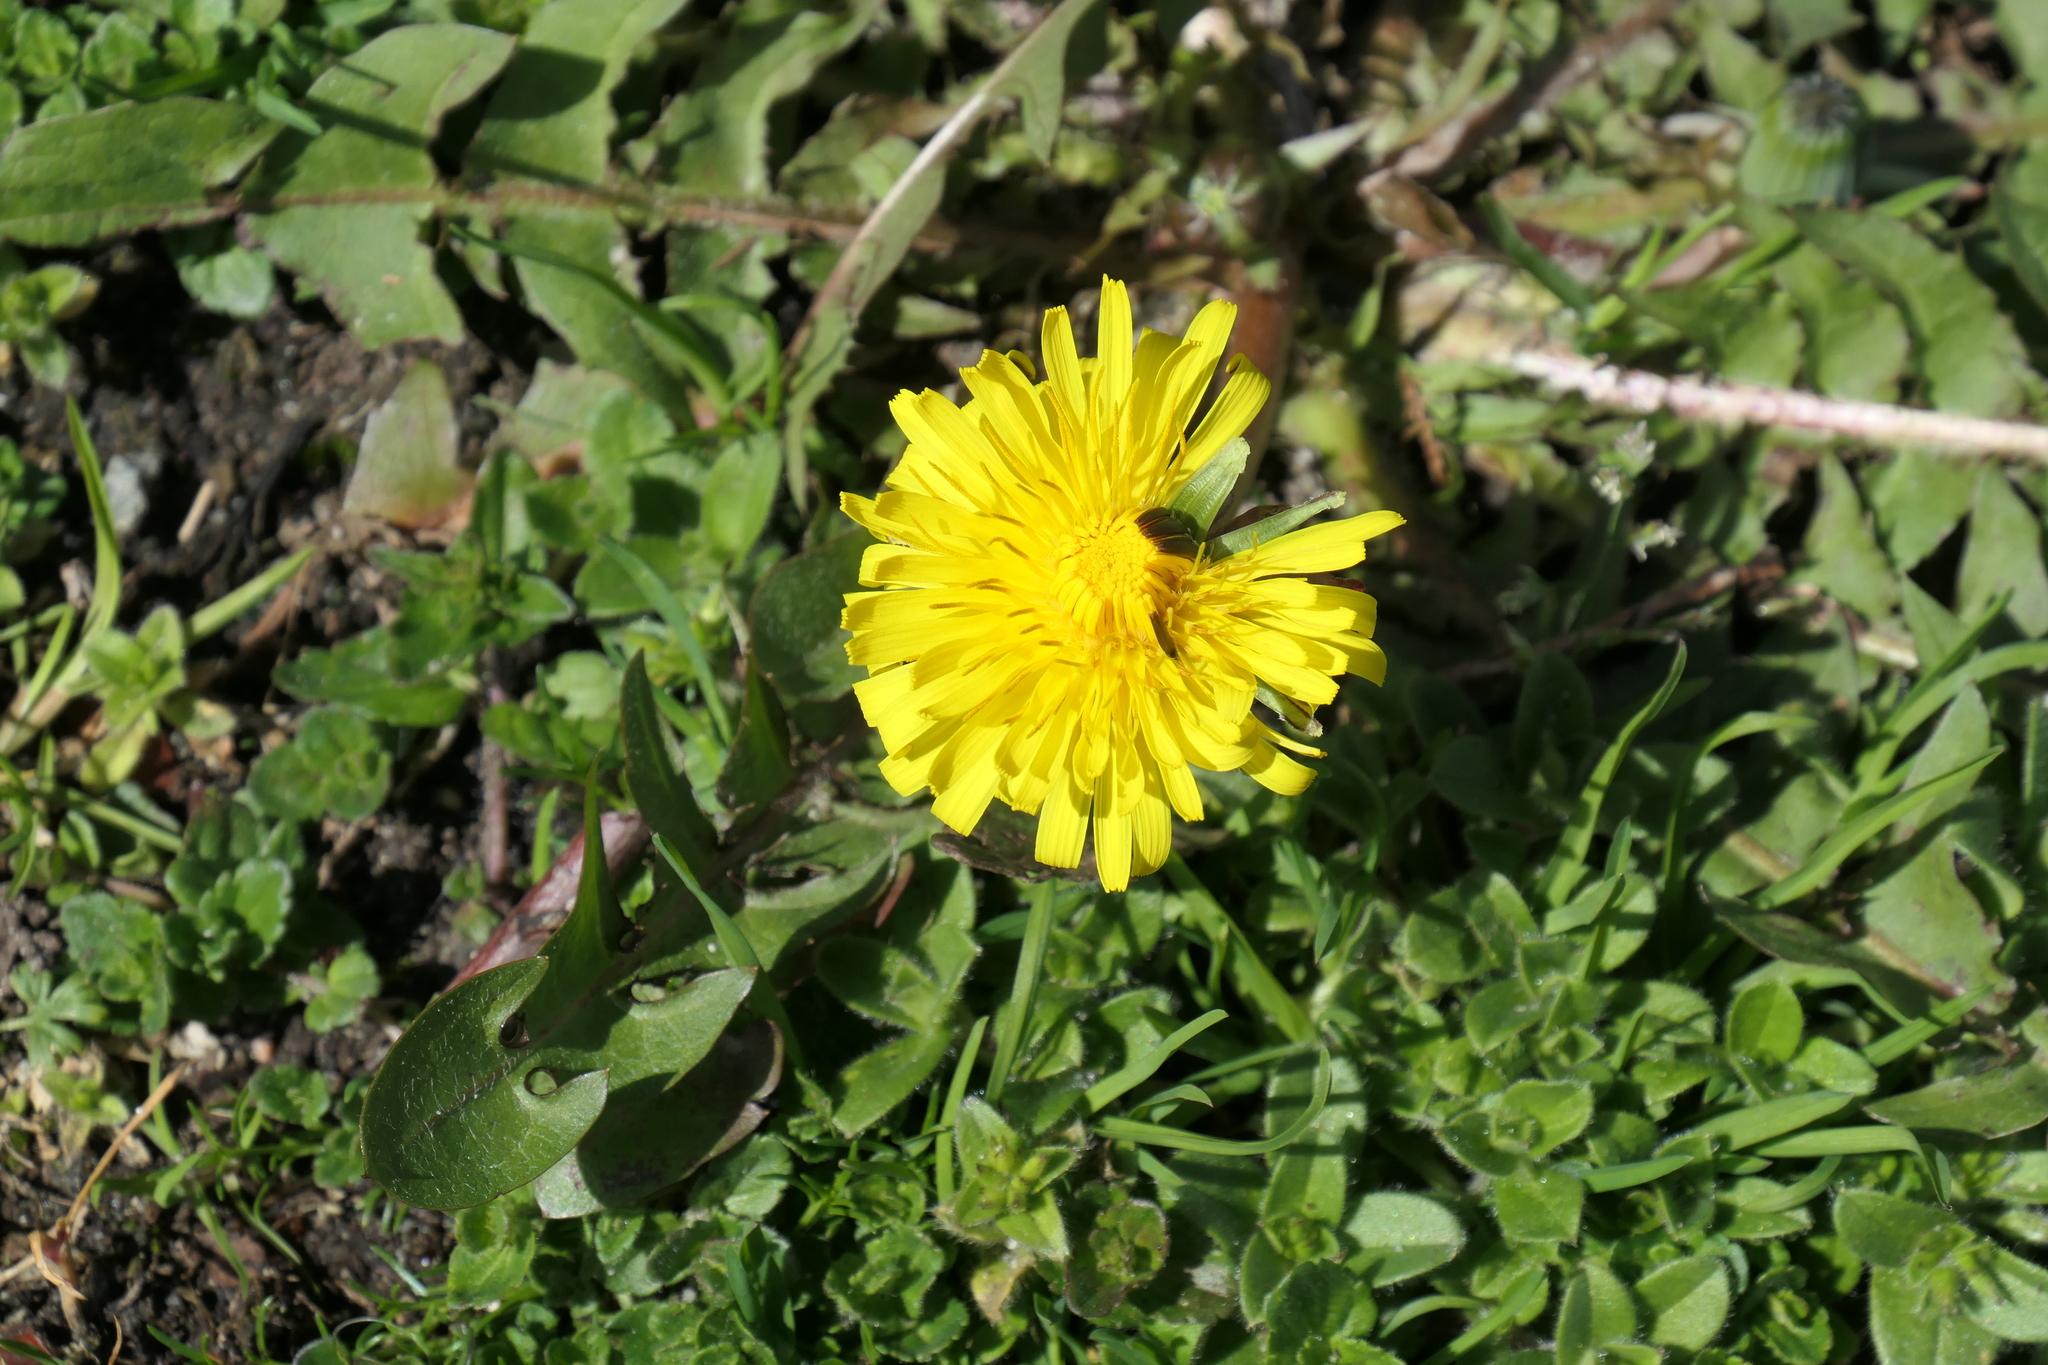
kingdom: Plantae
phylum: Tracheophyta
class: Magnoliopsida
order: Asterales
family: Asteraceae
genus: Taraxacum
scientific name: Taraxacum officinale
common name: Common dandelion
